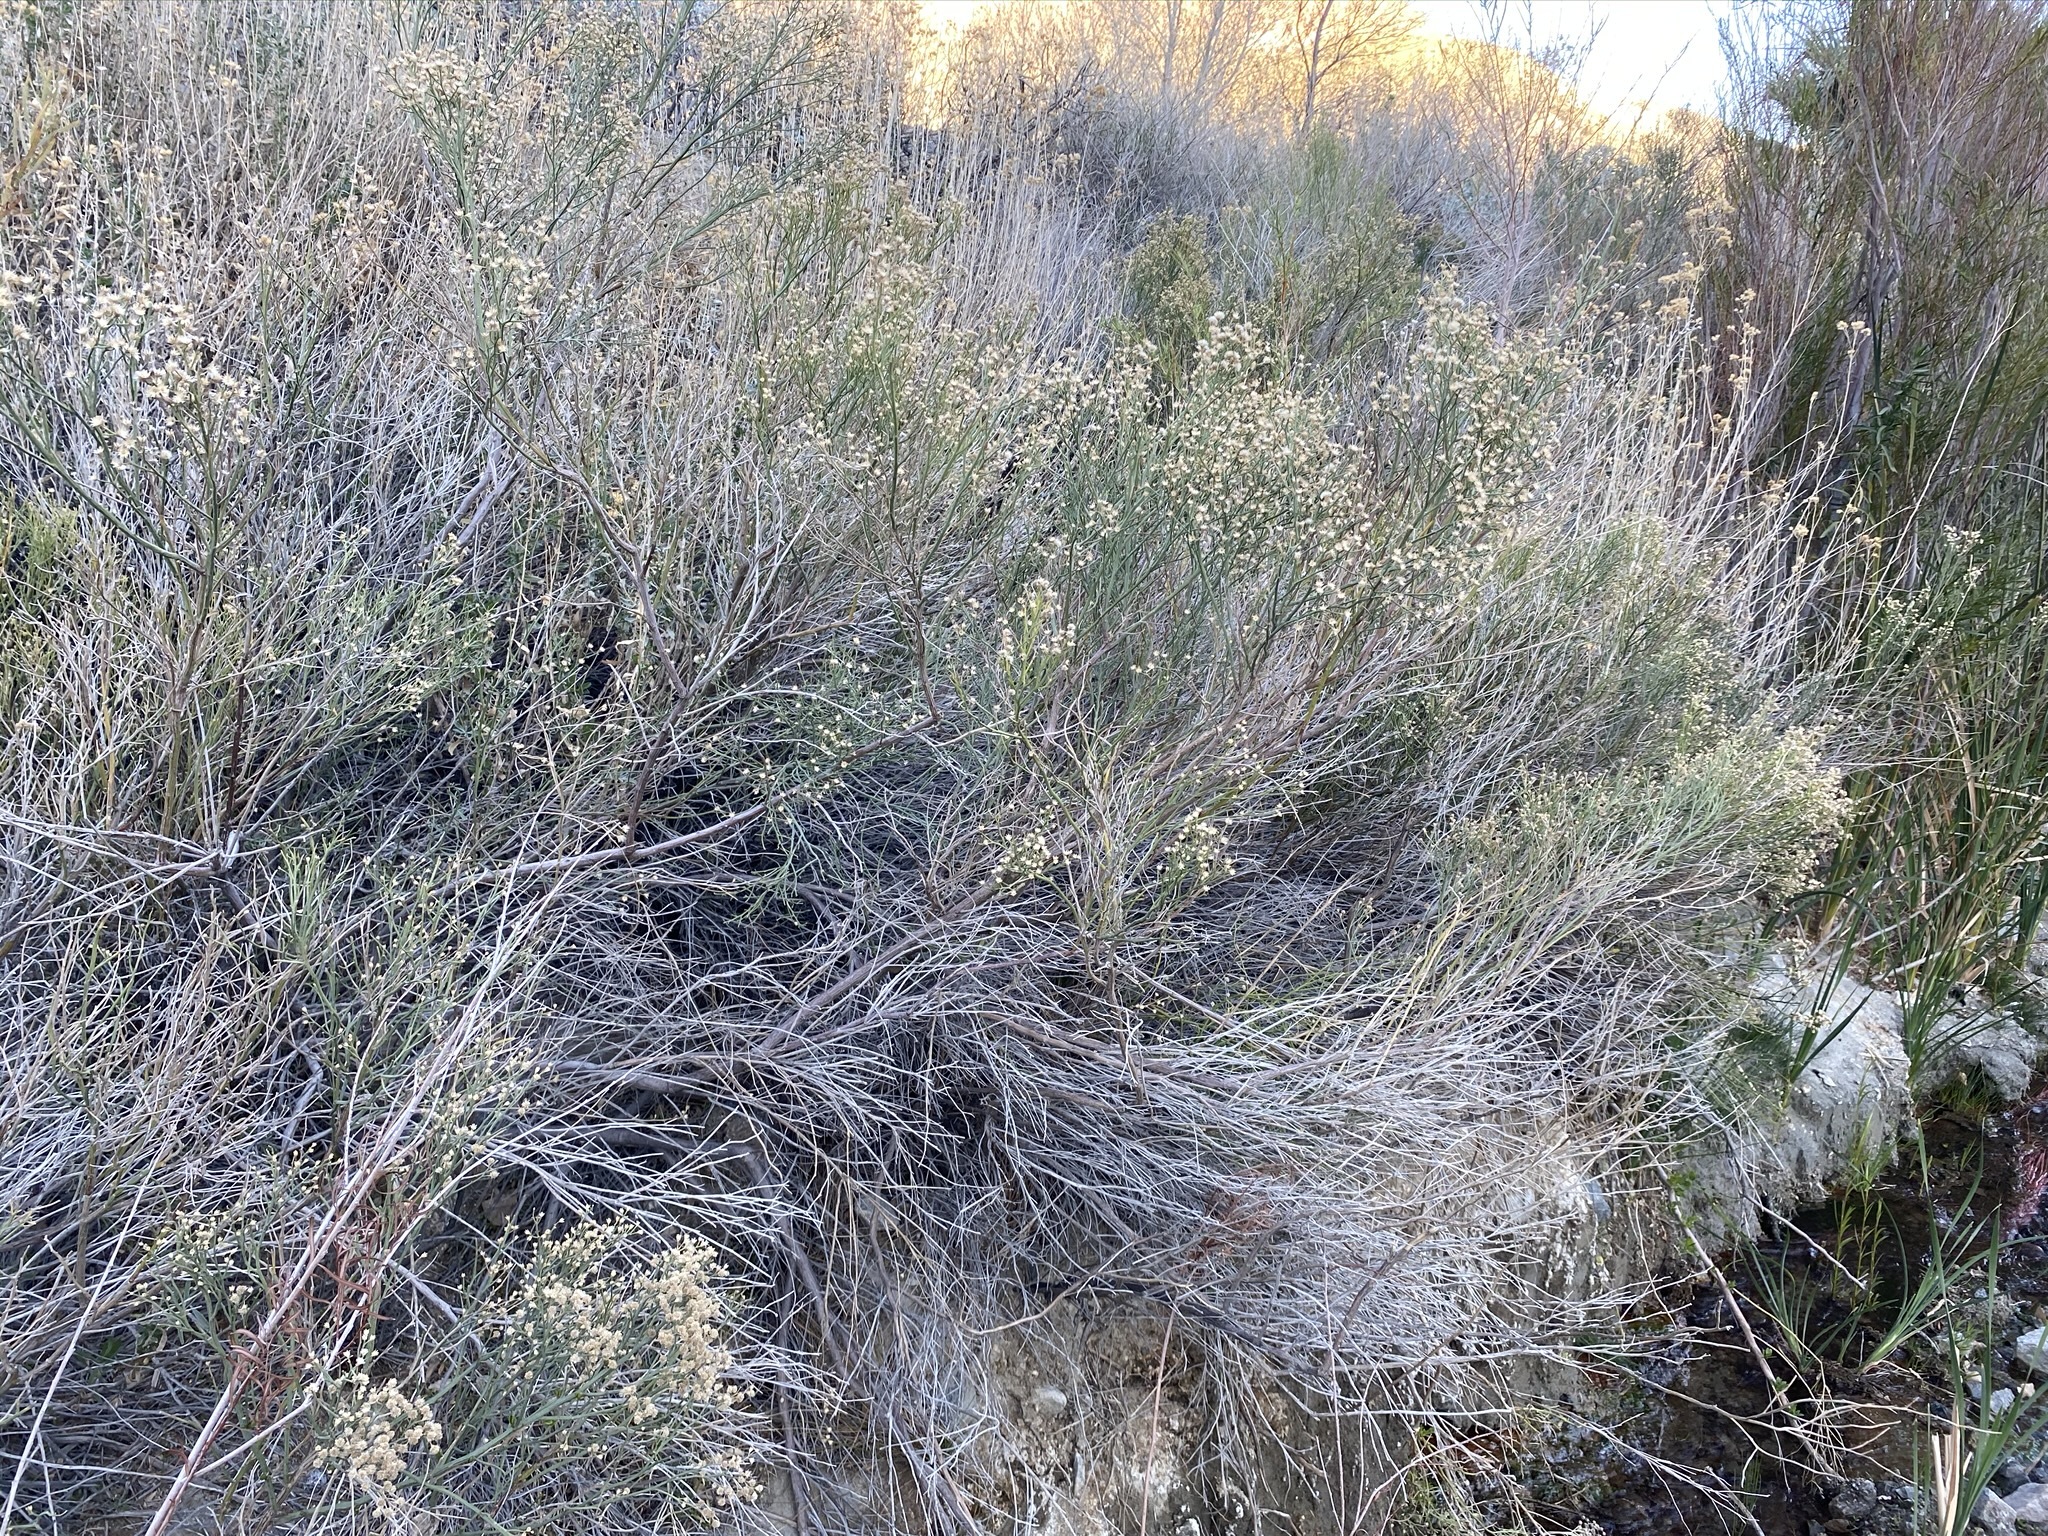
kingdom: Plantae
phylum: Tracheophyta
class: Magnoliopsida
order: Asterales
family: Asteraceae
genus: Baccharis
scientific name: Baccharis sarothroides
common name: Desert-broom
